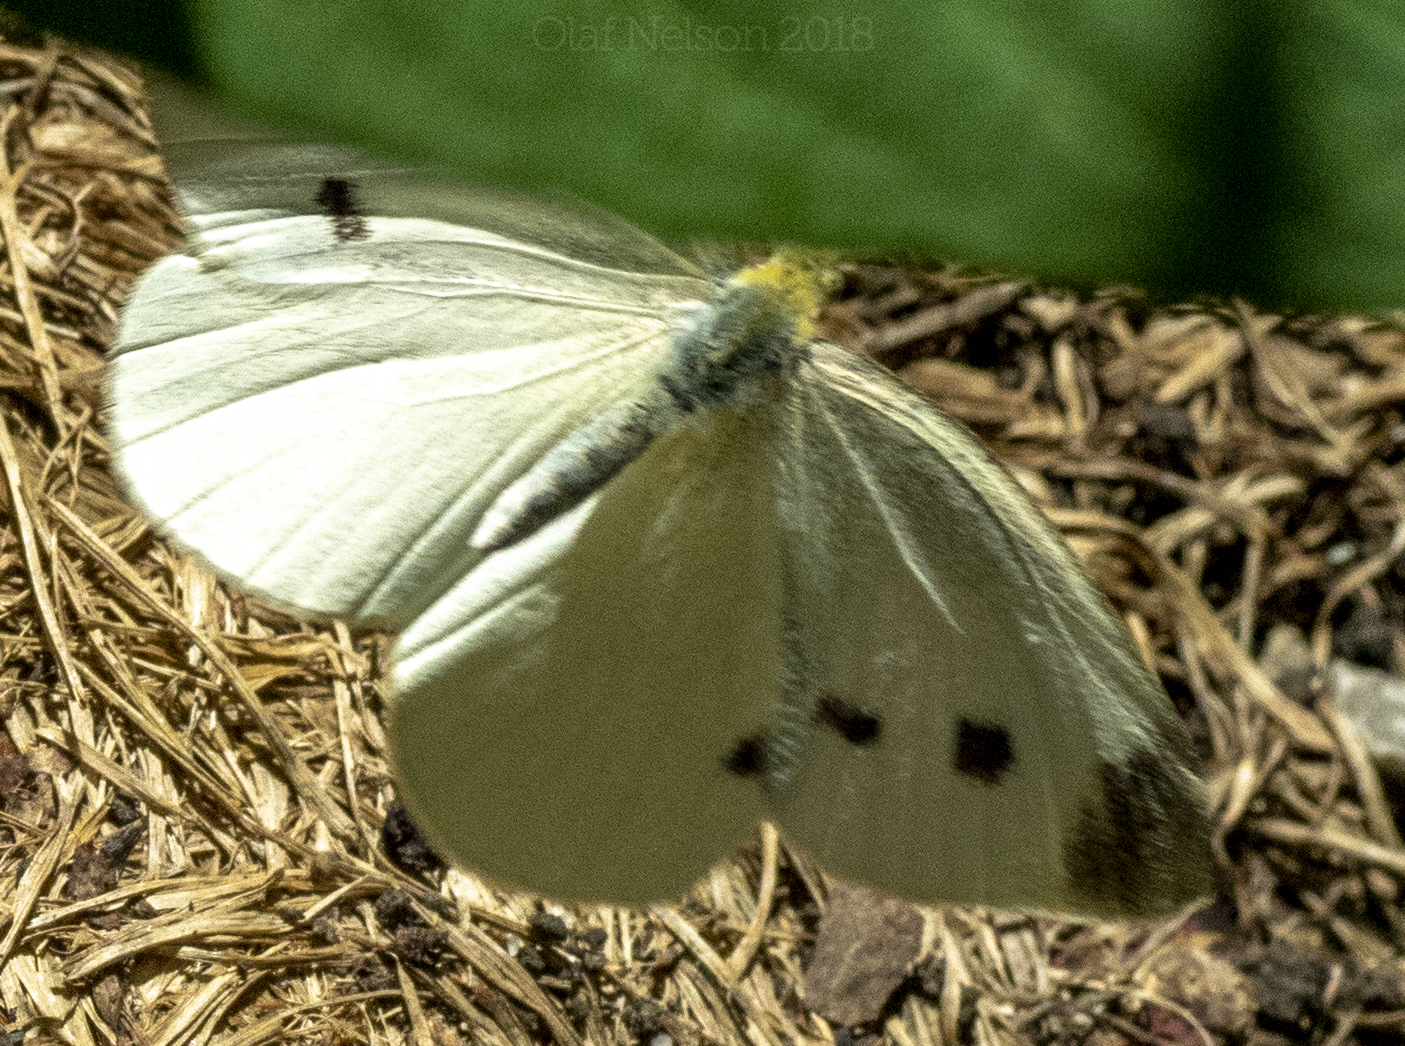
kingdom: Animalia
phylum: Arthropoda
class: Insecta
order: Lepidoptera
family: Pieridae
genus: Pieris
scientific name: Pieris rapae
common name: Small white
